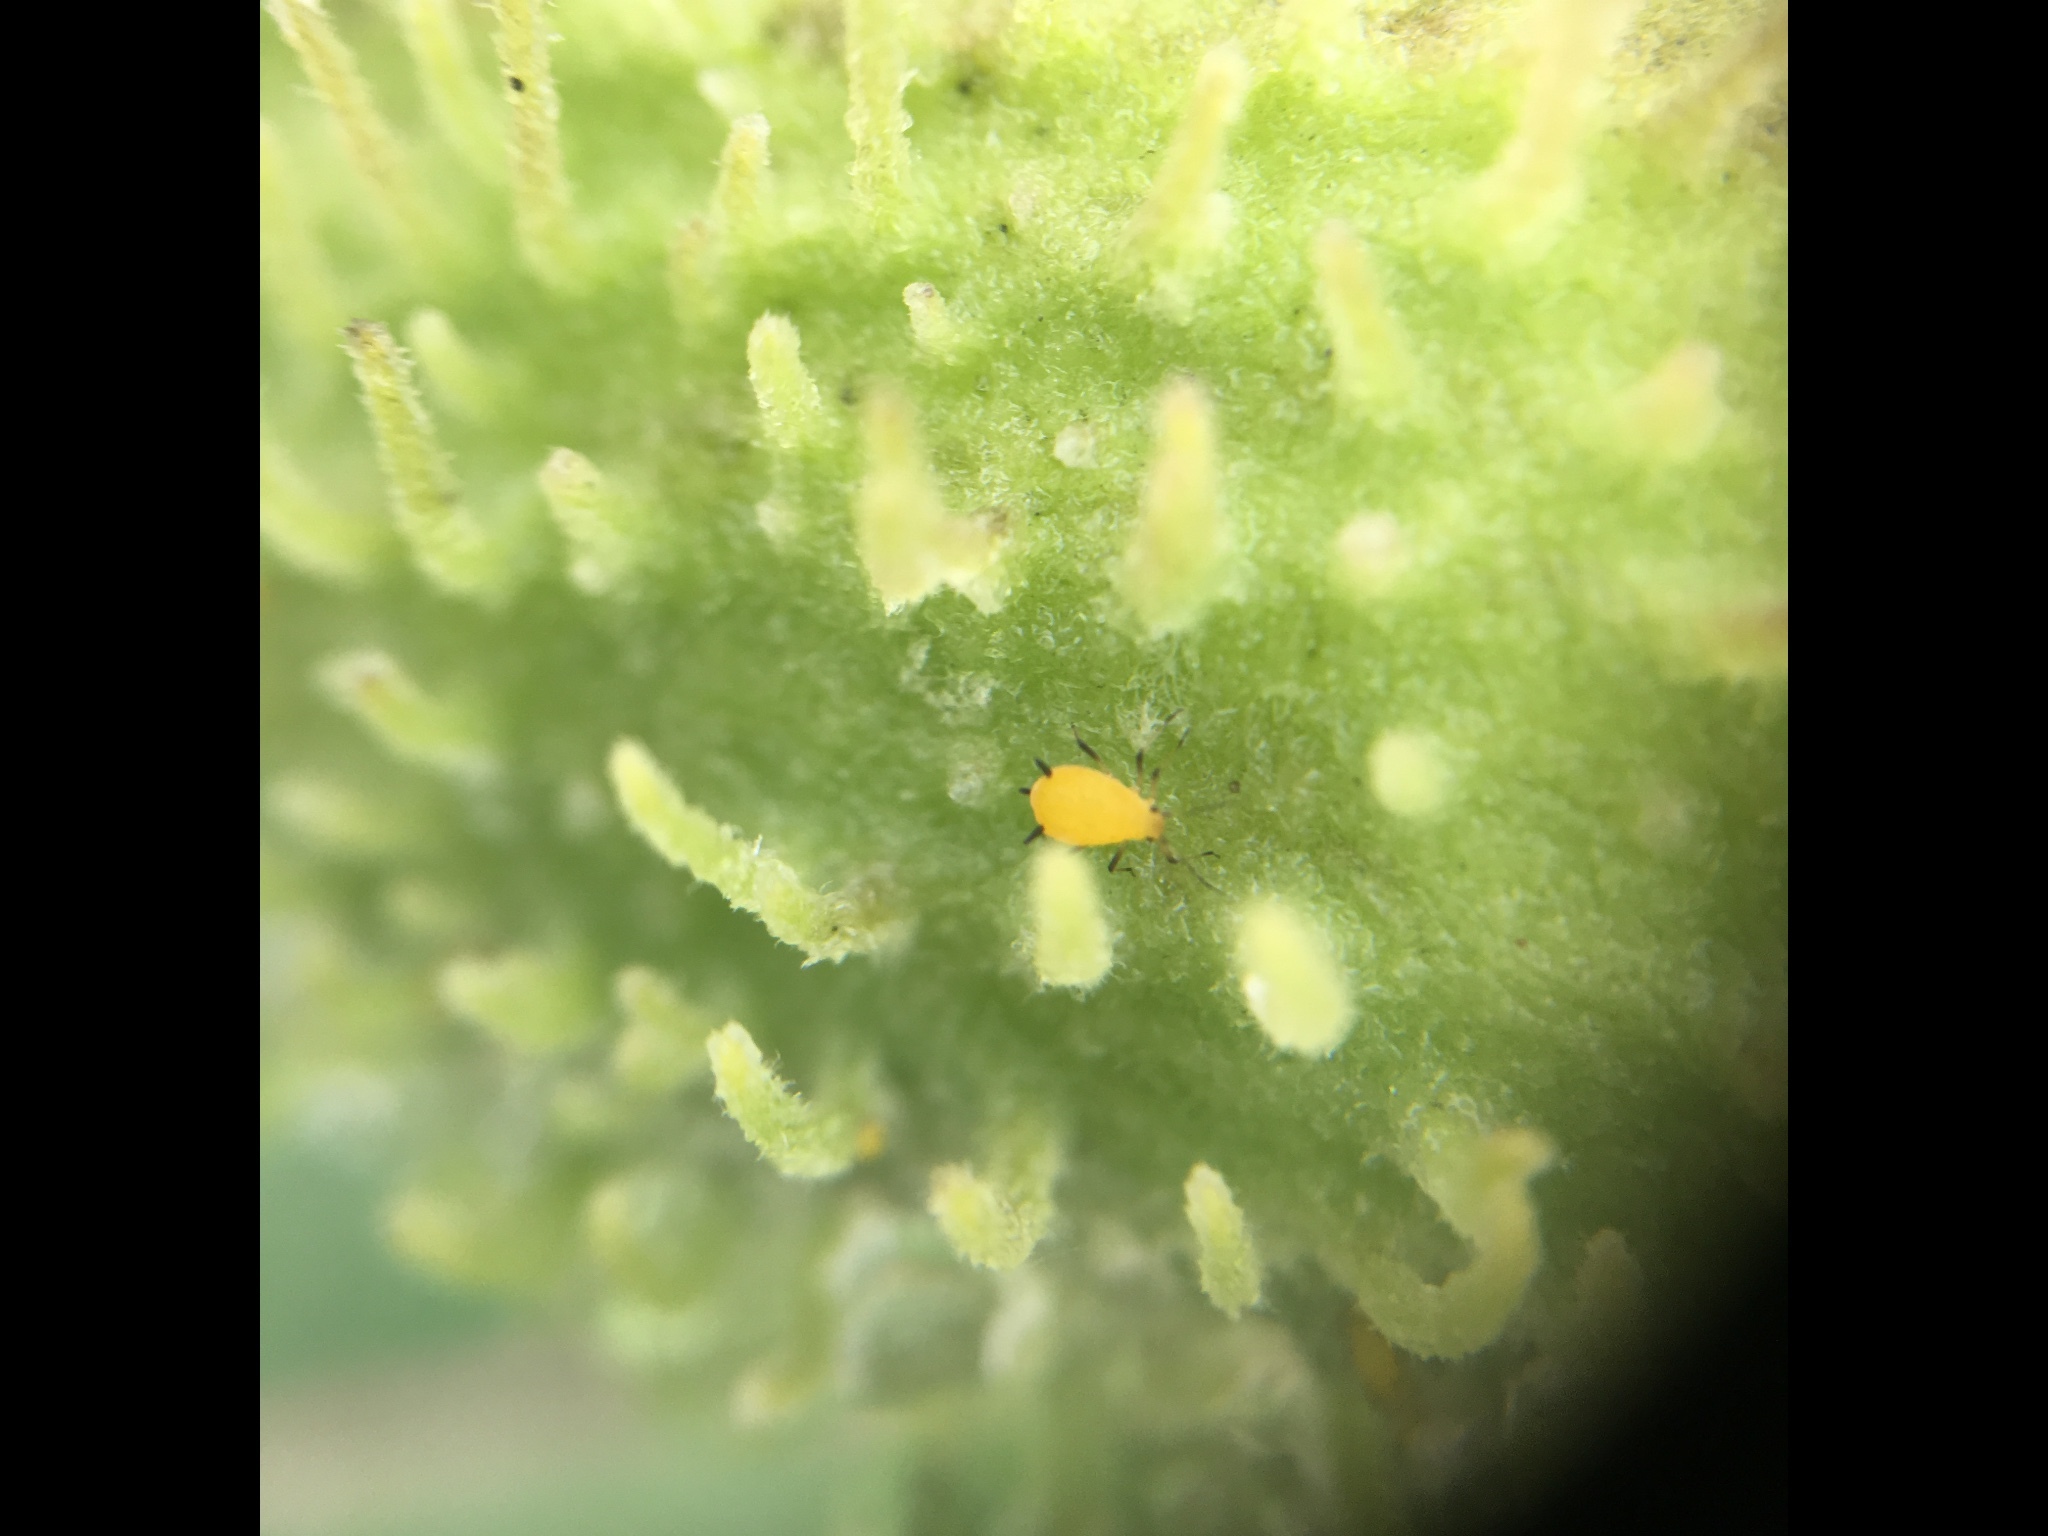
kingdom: Animalia
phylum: Arthropoda
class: Insecta
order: Hemiptera
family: Aphididae
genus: Aphis
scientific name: Aphis nerii
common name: Oleander aphid
